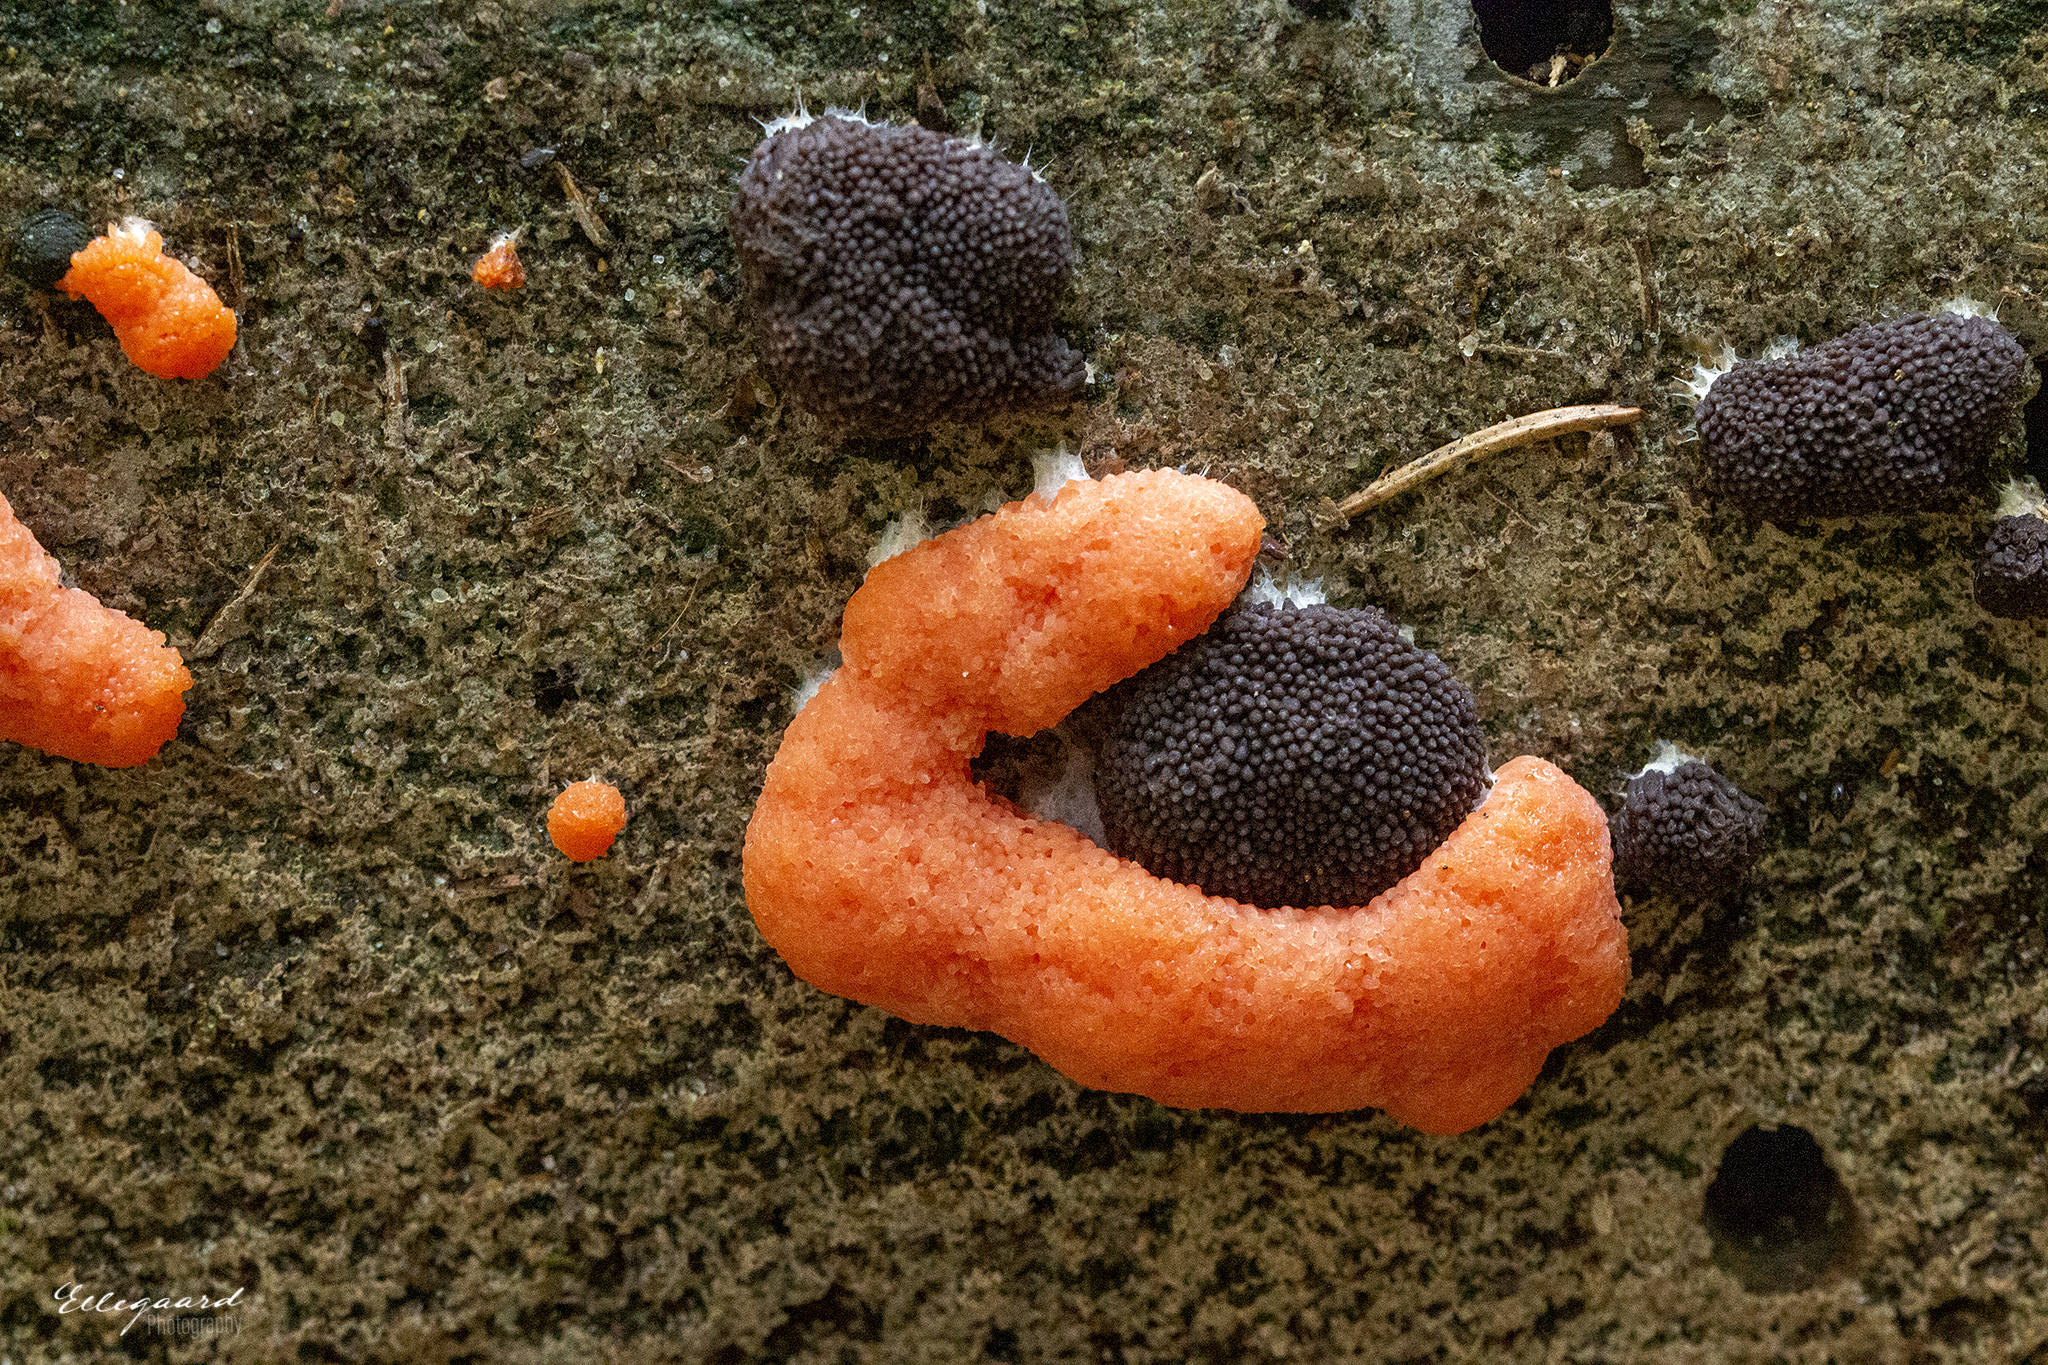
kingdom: Protozoa
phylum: Mycetozoa
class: Myxomycetes
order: Cribrariales
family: Tubiferaceae
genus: Tubifera
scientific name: Tubifera ferruginosa
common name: Red raspberry slime mold
